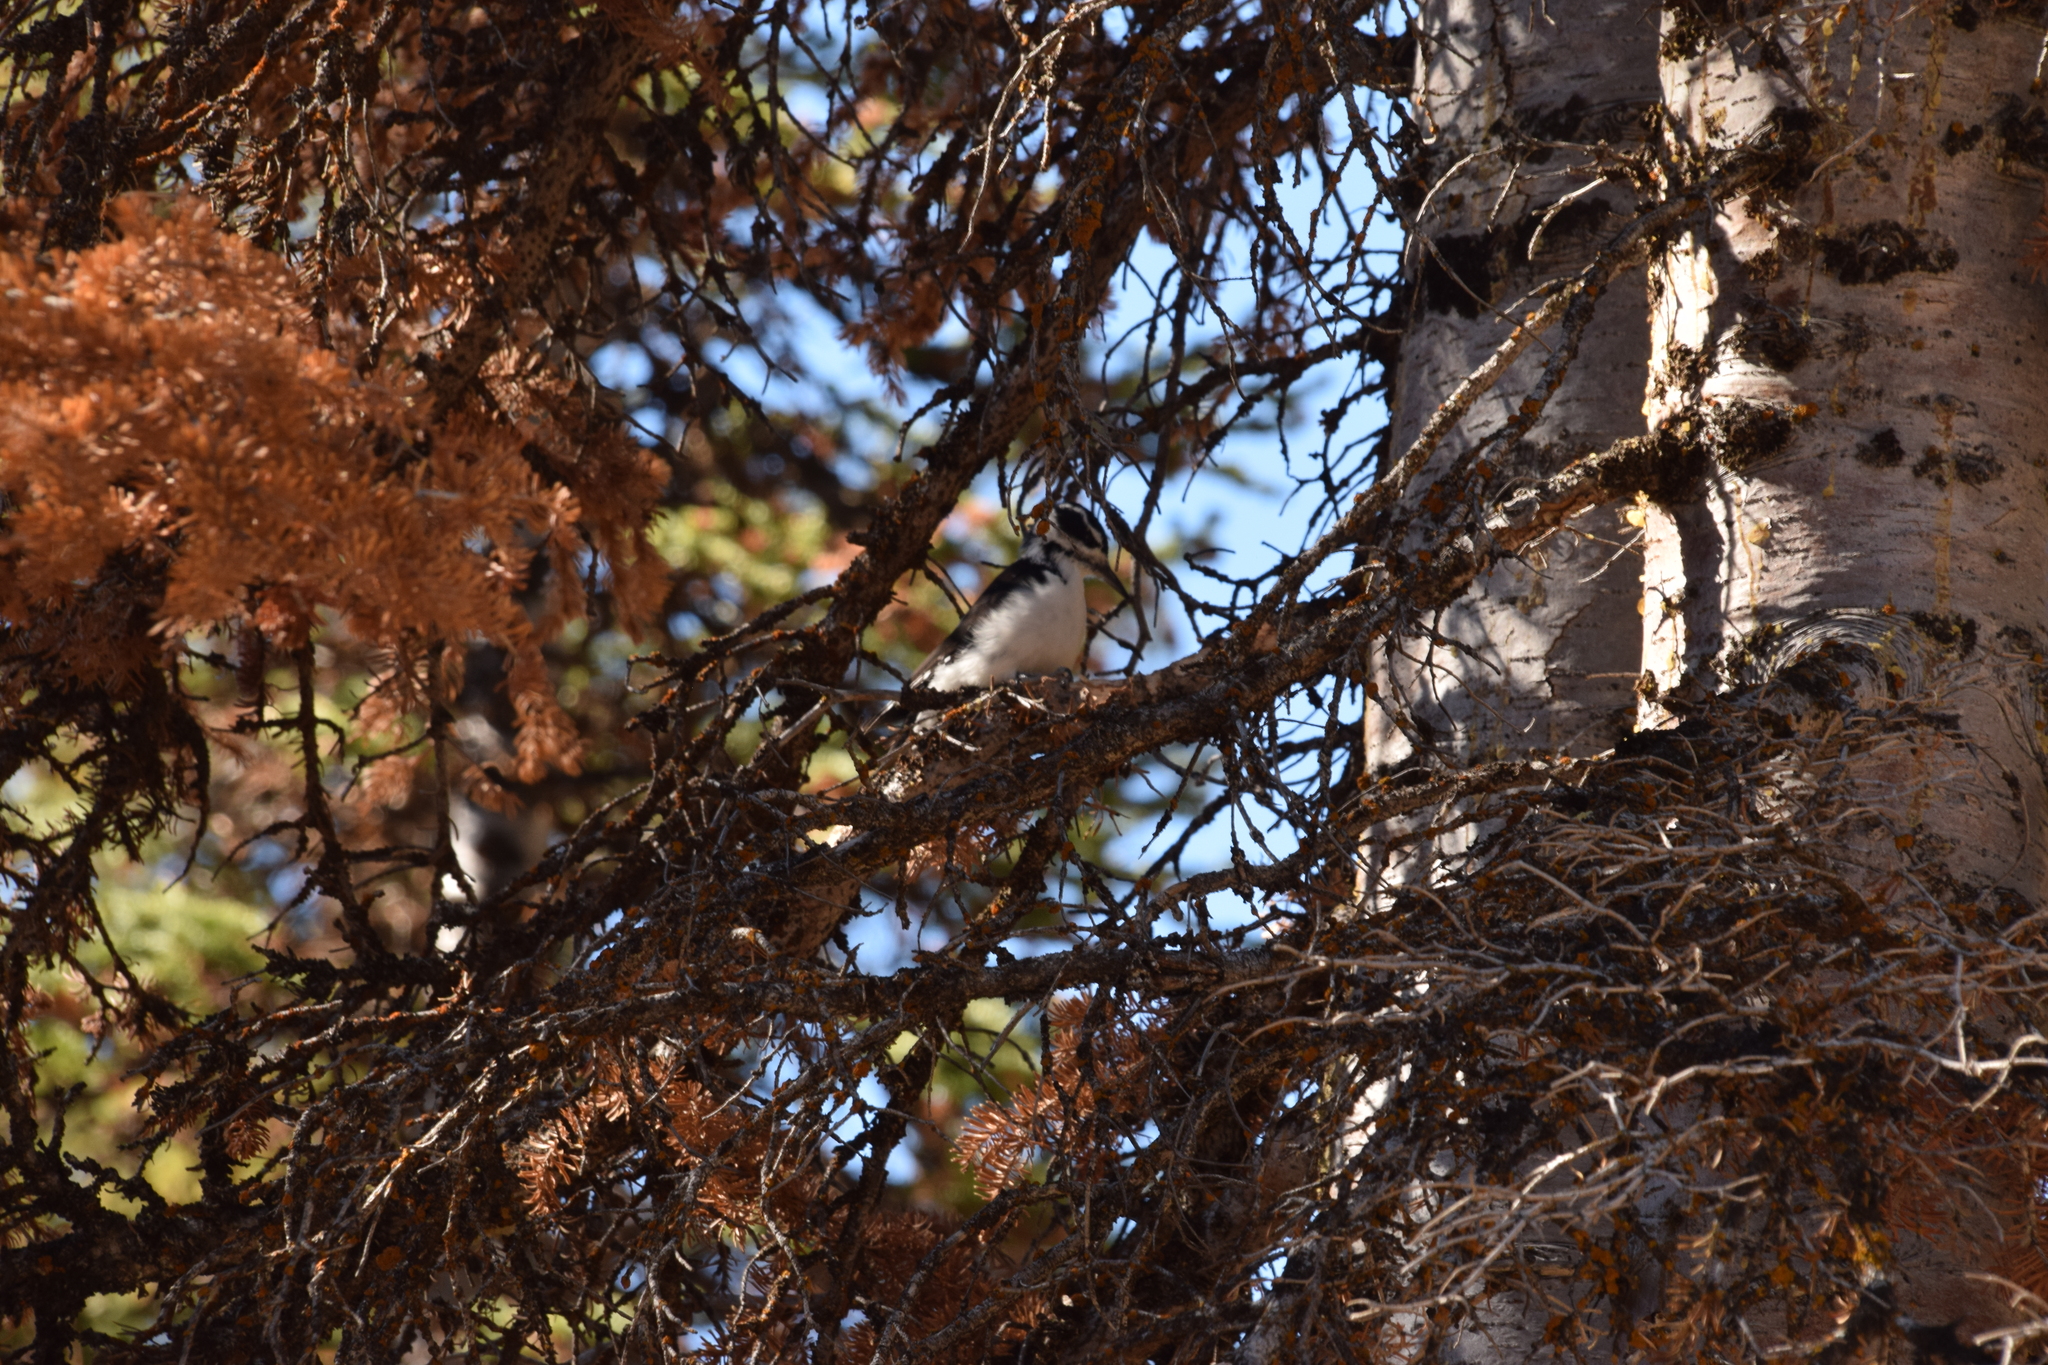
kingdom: Animalia
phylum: Chordata
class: Aves
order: Piciformes
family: Picidae
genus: Leuconotopicus
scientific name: Leuconotopicus villosus
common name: Hairy woodpecker
